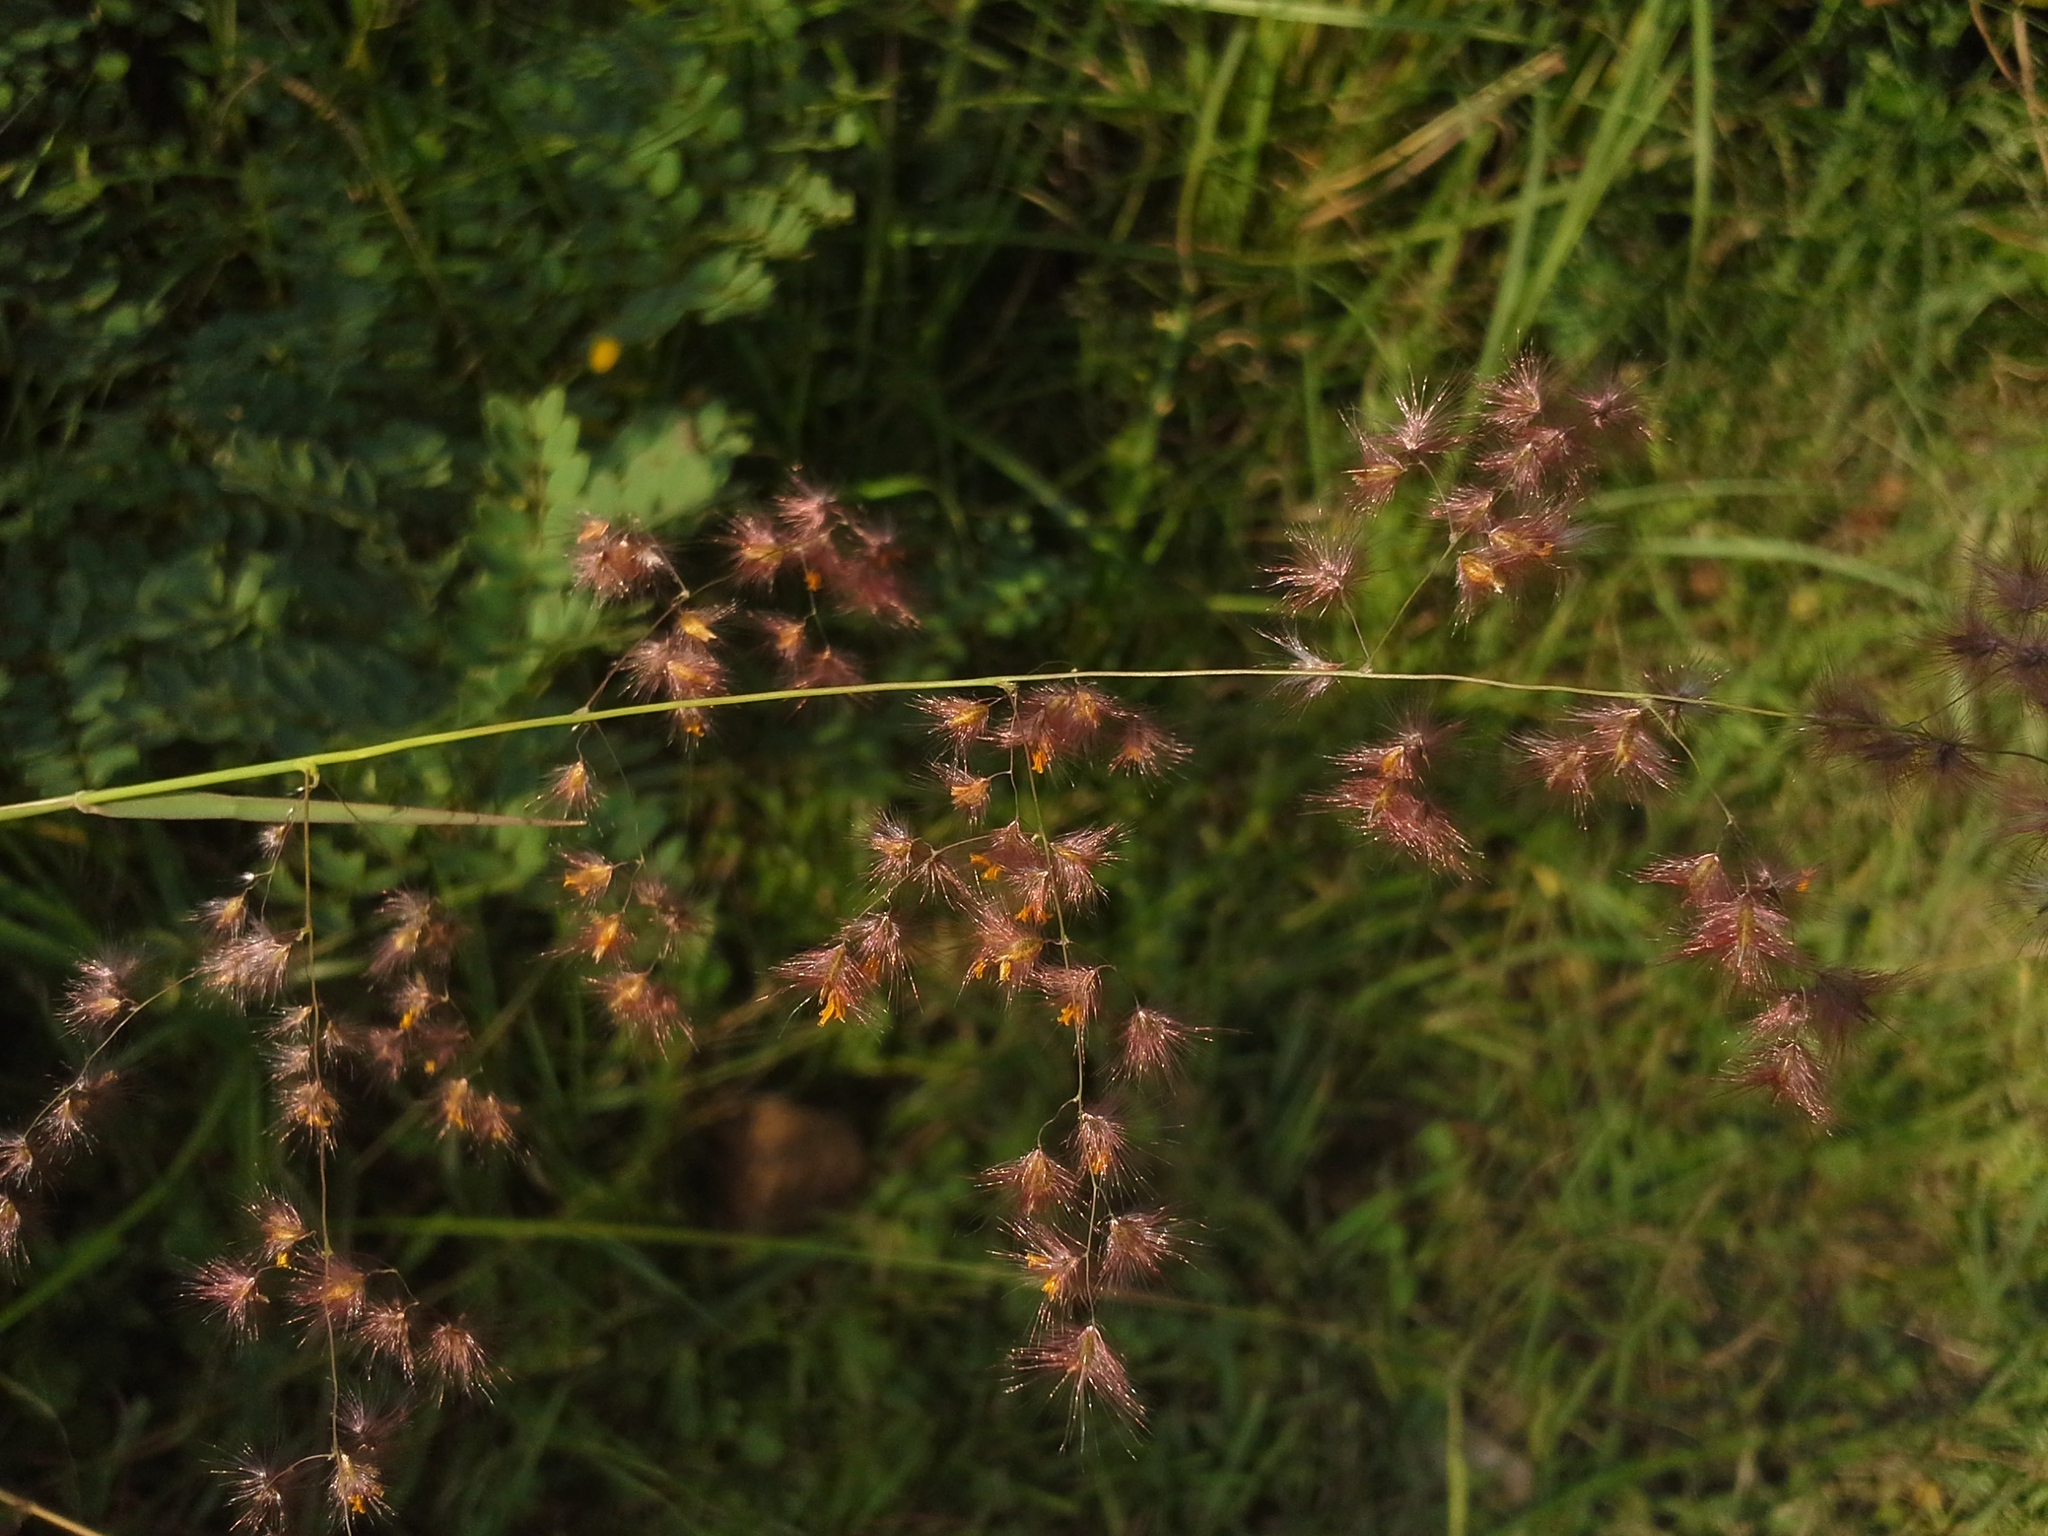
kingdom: Plantae
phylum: Tracheophyta
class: Liliopsida
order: Poales
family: Poaceae
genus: Melinis
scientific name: Melinis repens
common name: Rose natal grass
